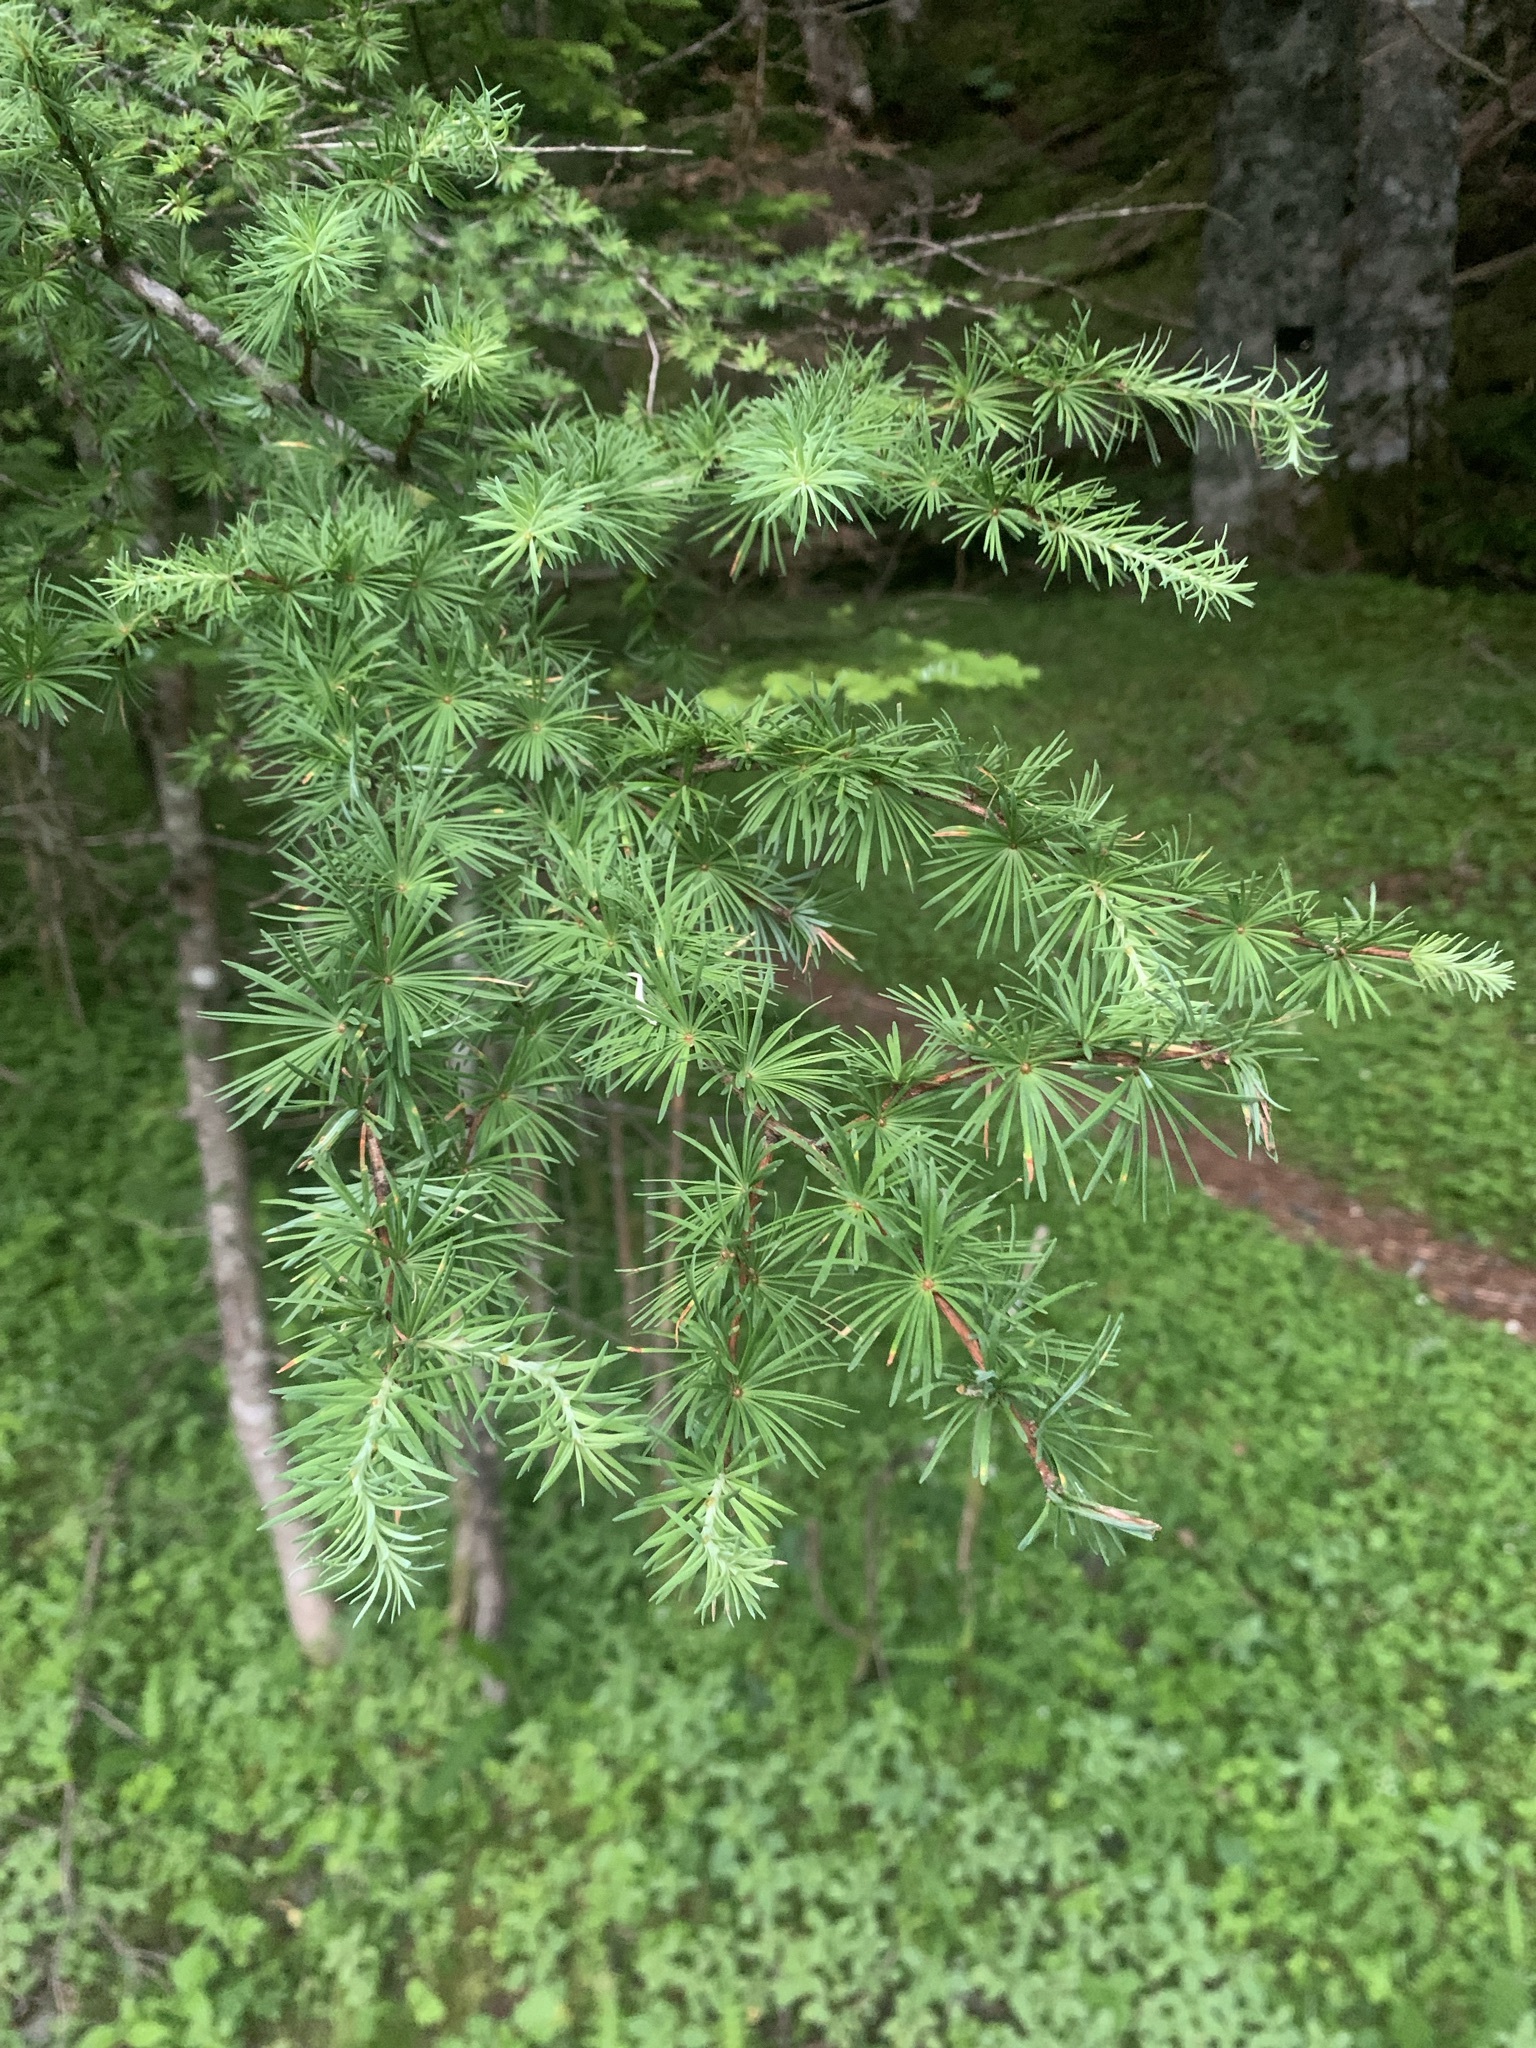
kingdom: Plantae
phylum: Tracheophyta
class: Pinopsida
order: Pinales
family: Pinaceae
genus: Larix
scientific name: Larix kaempferi
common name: Japanese larch
